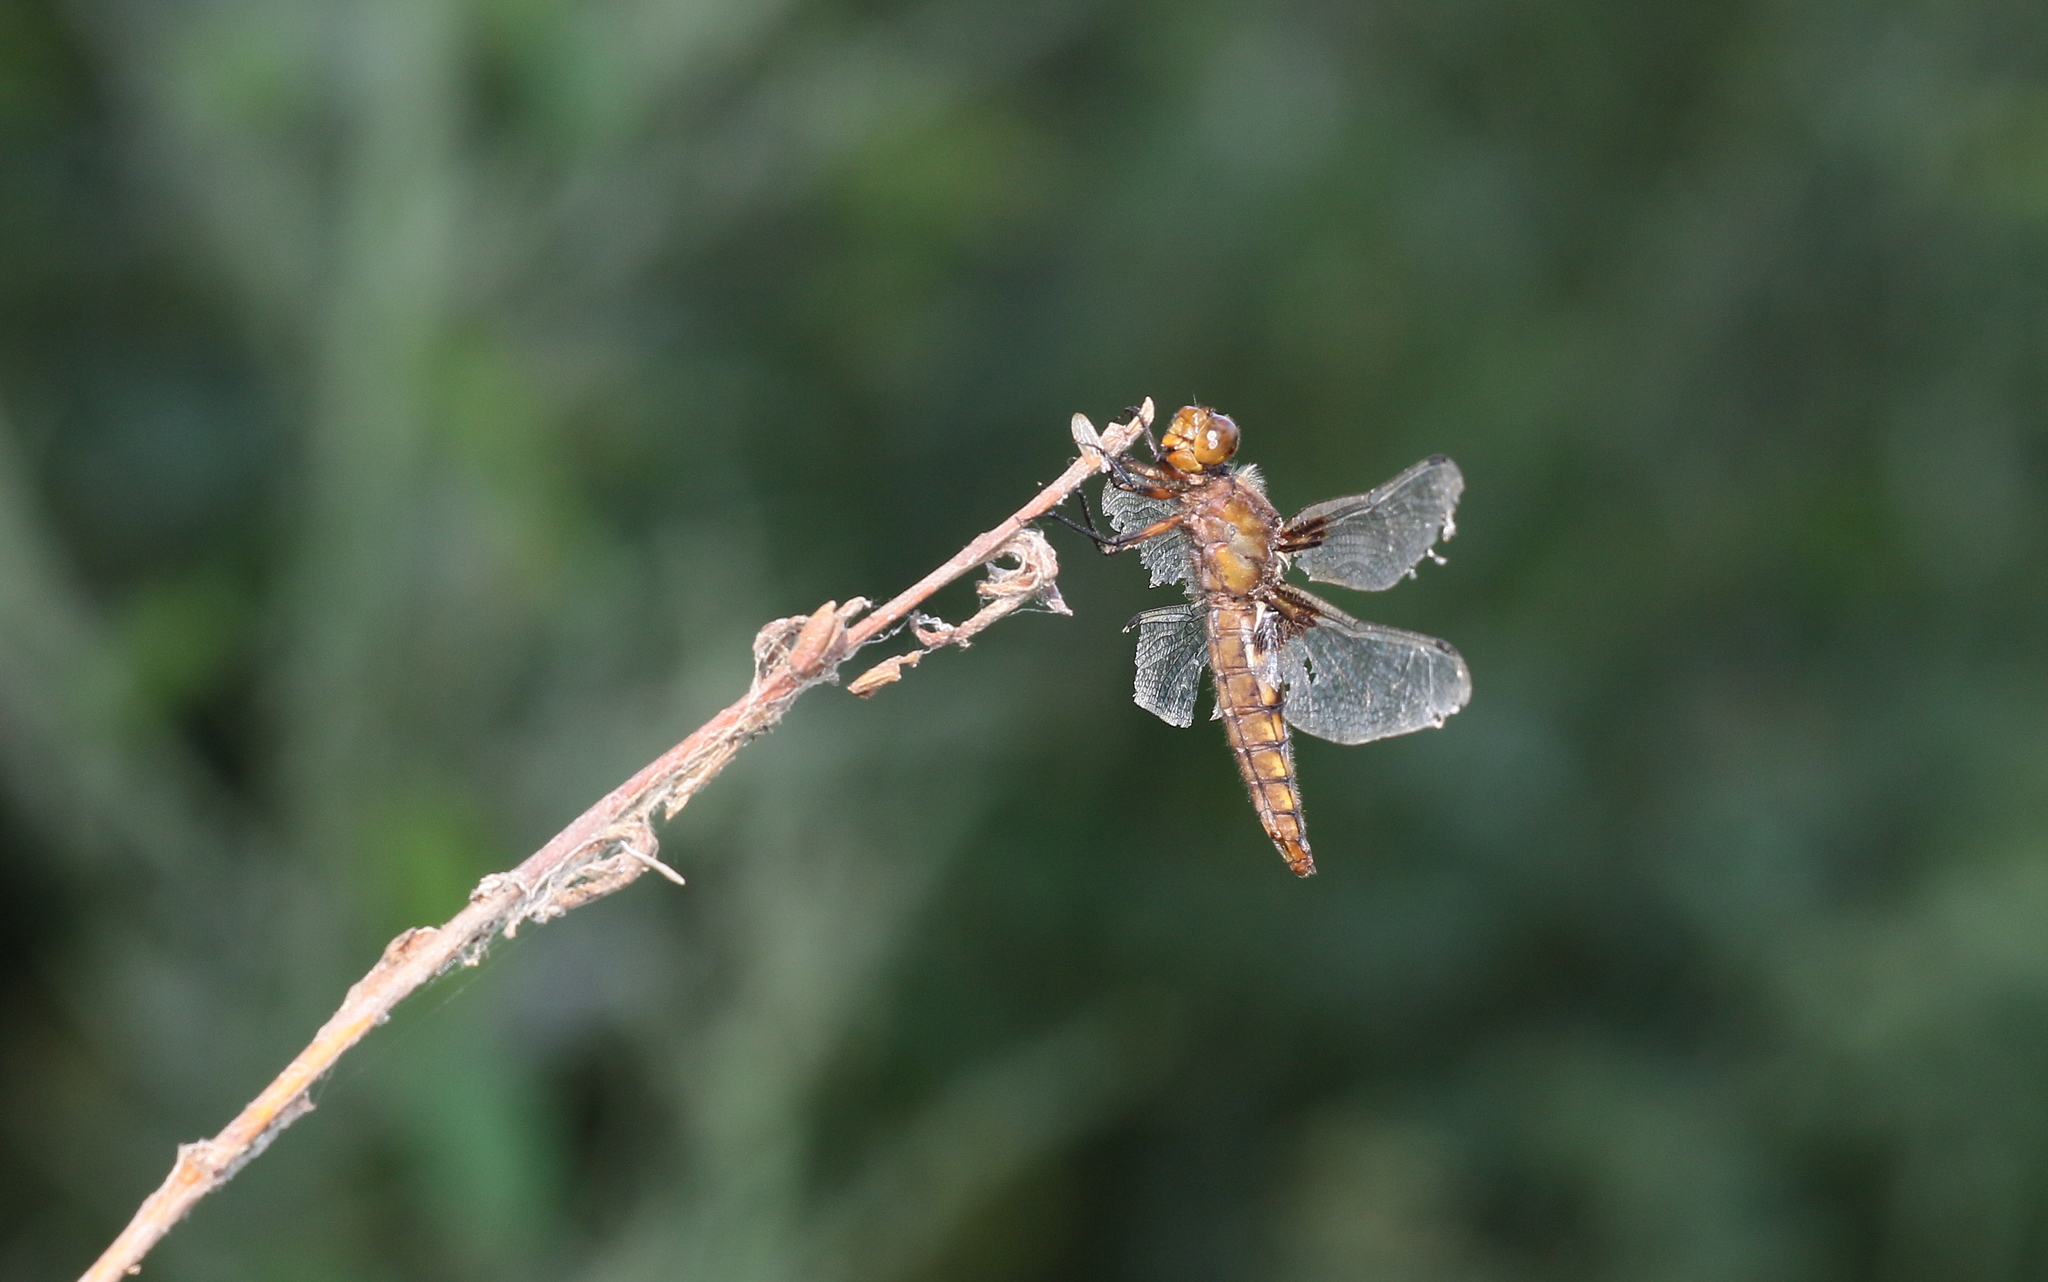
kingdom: Animalia
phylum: Arthropoda
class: Insecta
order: Odonata
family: Libellulidae
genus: Libellula
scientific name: Libellula depressa
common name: Broad-bodied chaser
